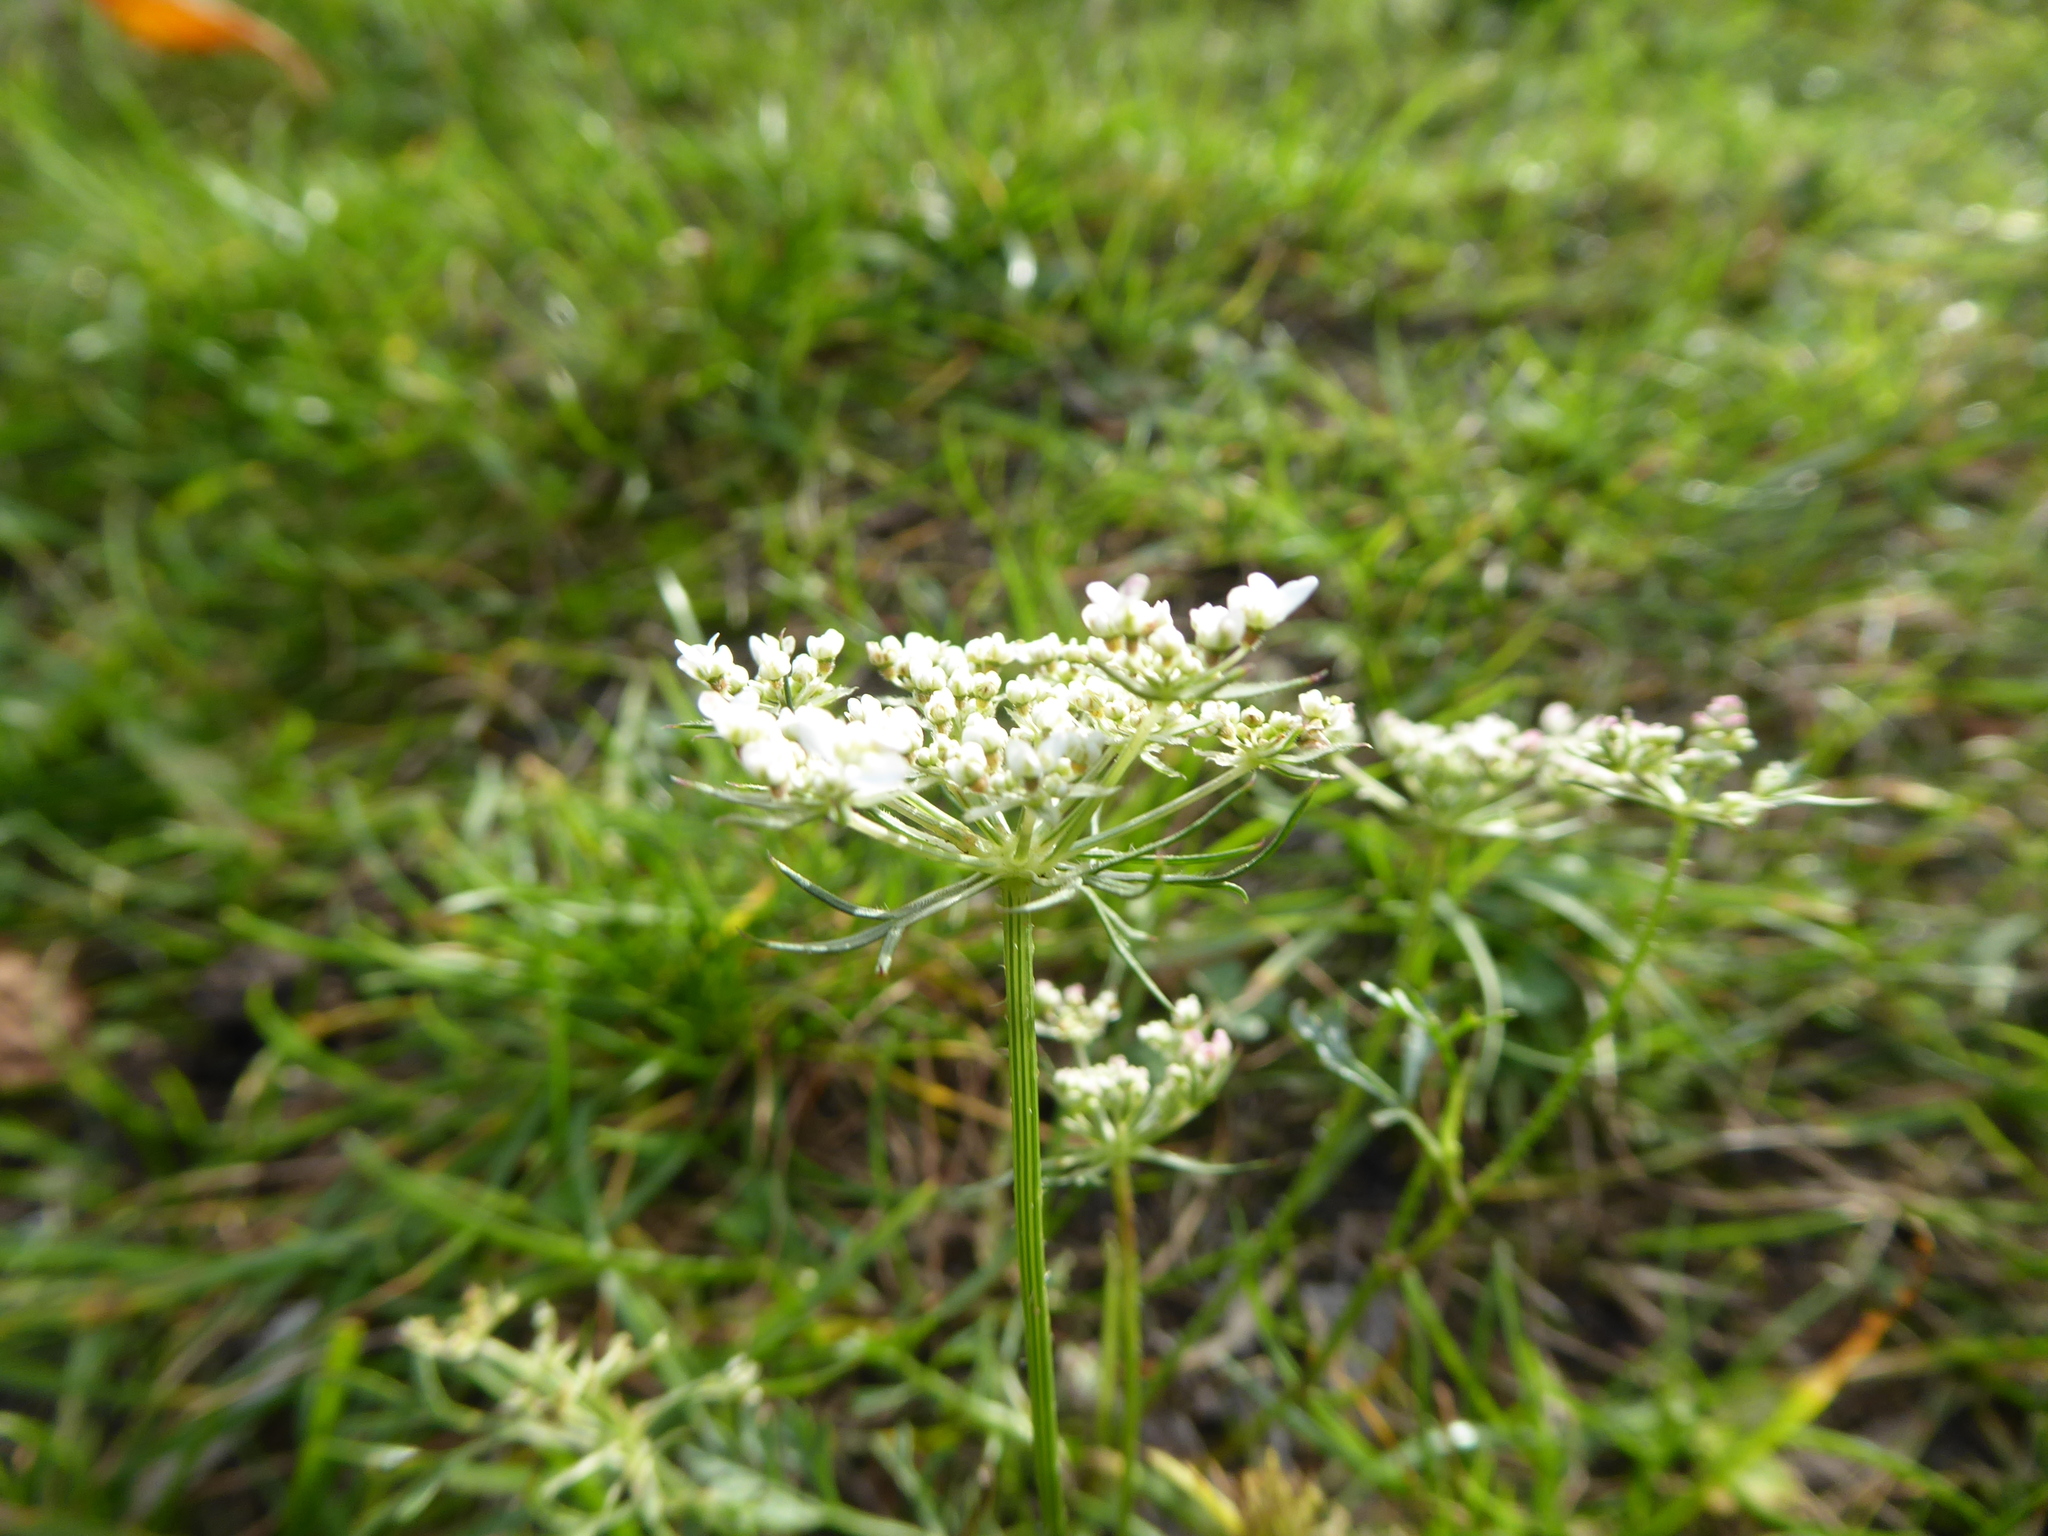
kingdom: Plantae
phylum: Tracheophyta
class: Magnoliopsida
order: Apiales
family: Apiaceae
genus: Daucus
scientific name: Daucus carota
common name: Wild carrot
